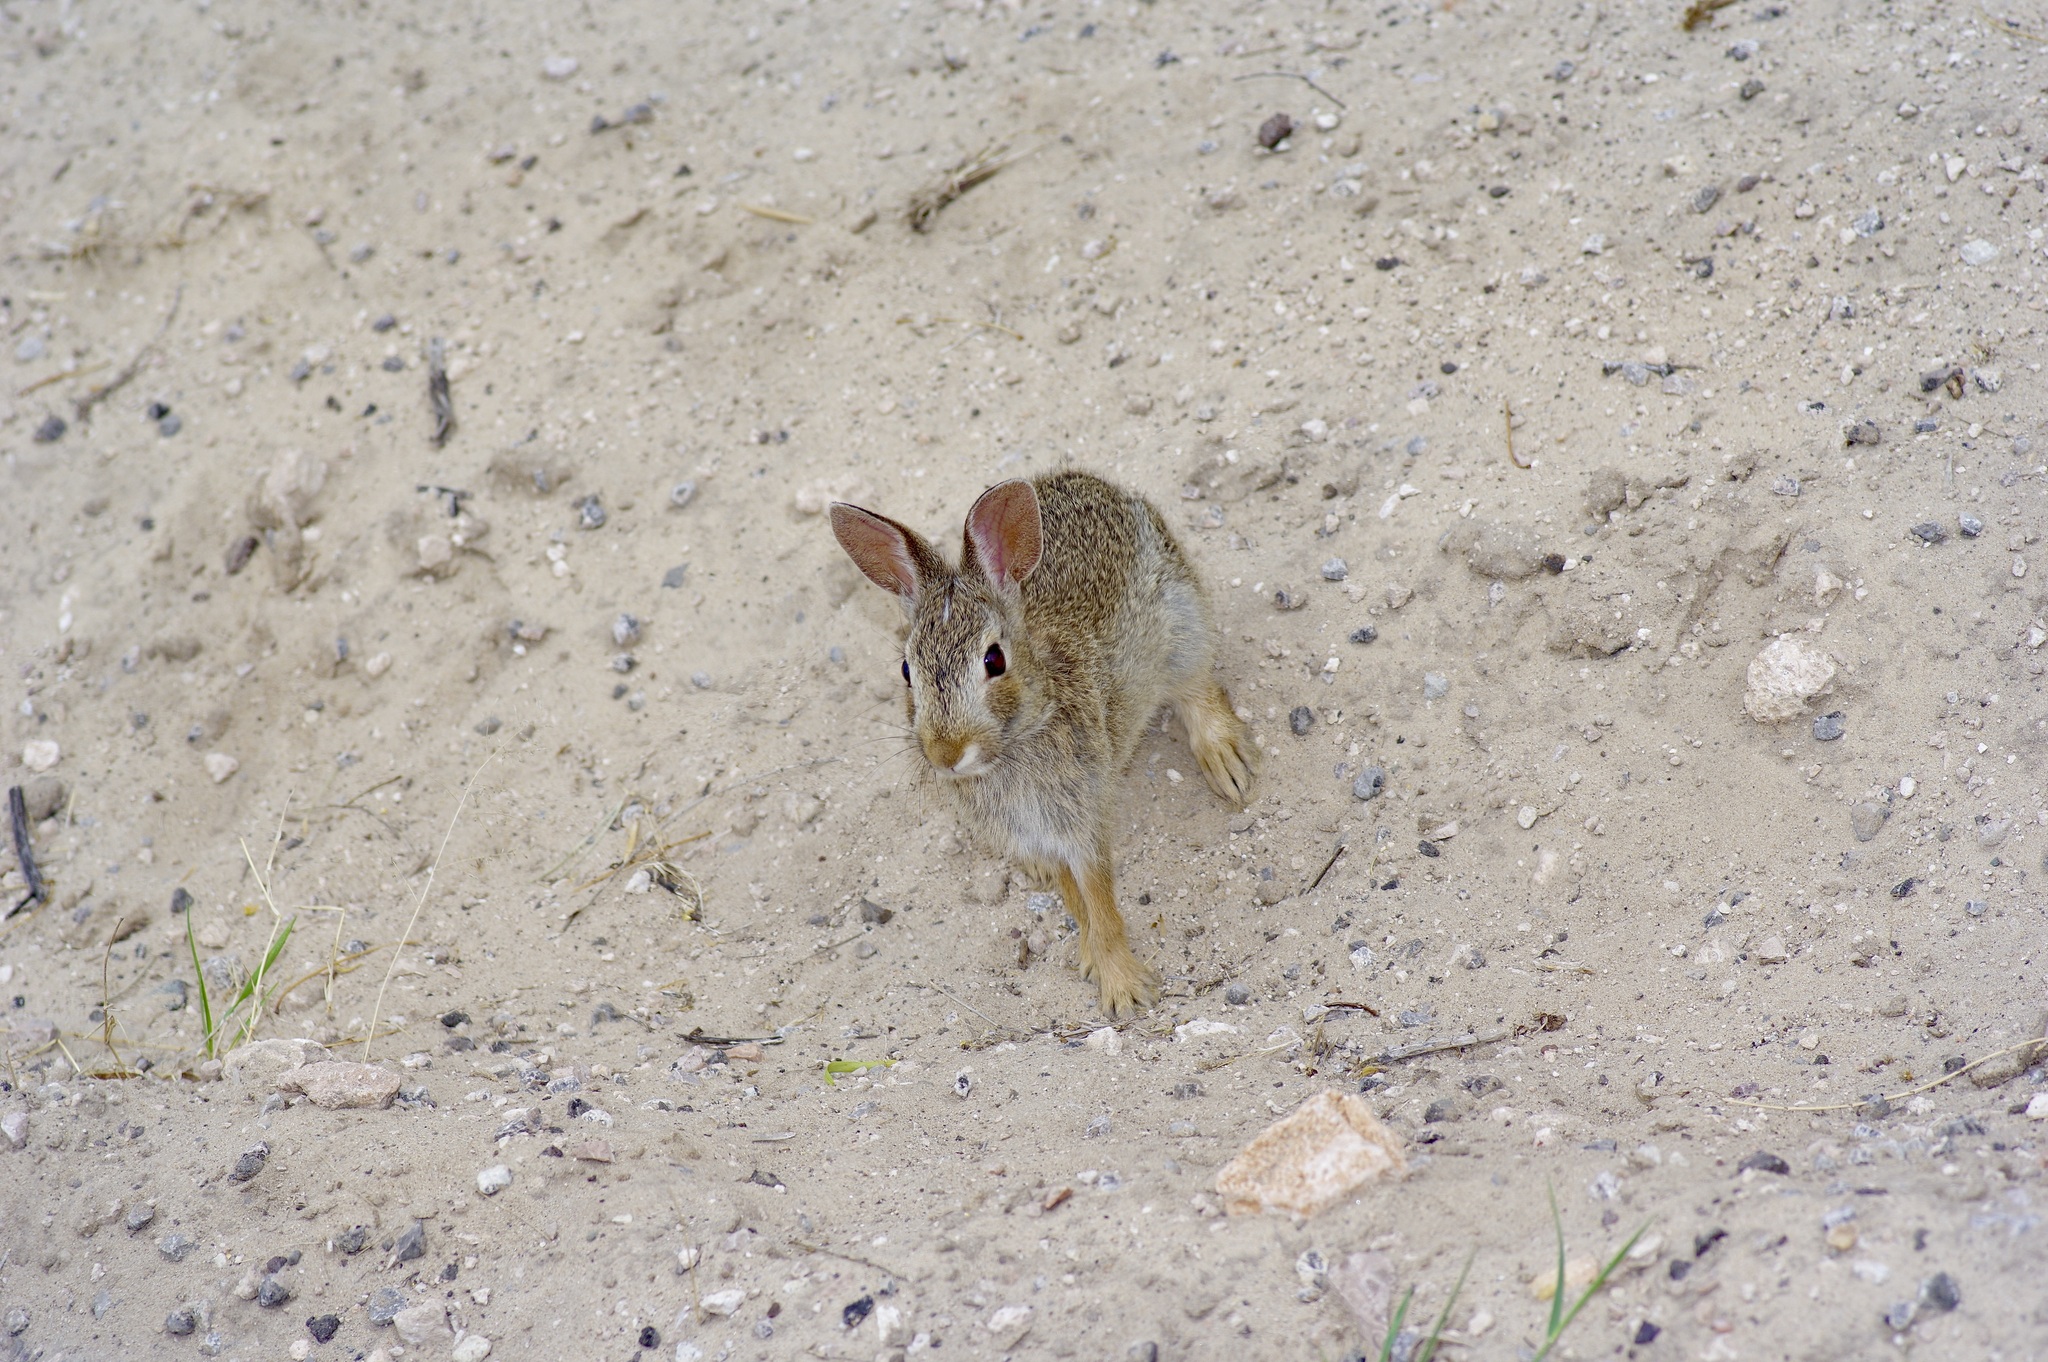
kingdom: Animalia
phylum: Chordata
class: Mammalia
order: Lagomorpha
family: Leporidae
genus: Sylvilagus
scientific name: Sylvilagus audubonii
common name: Desert cottontail
